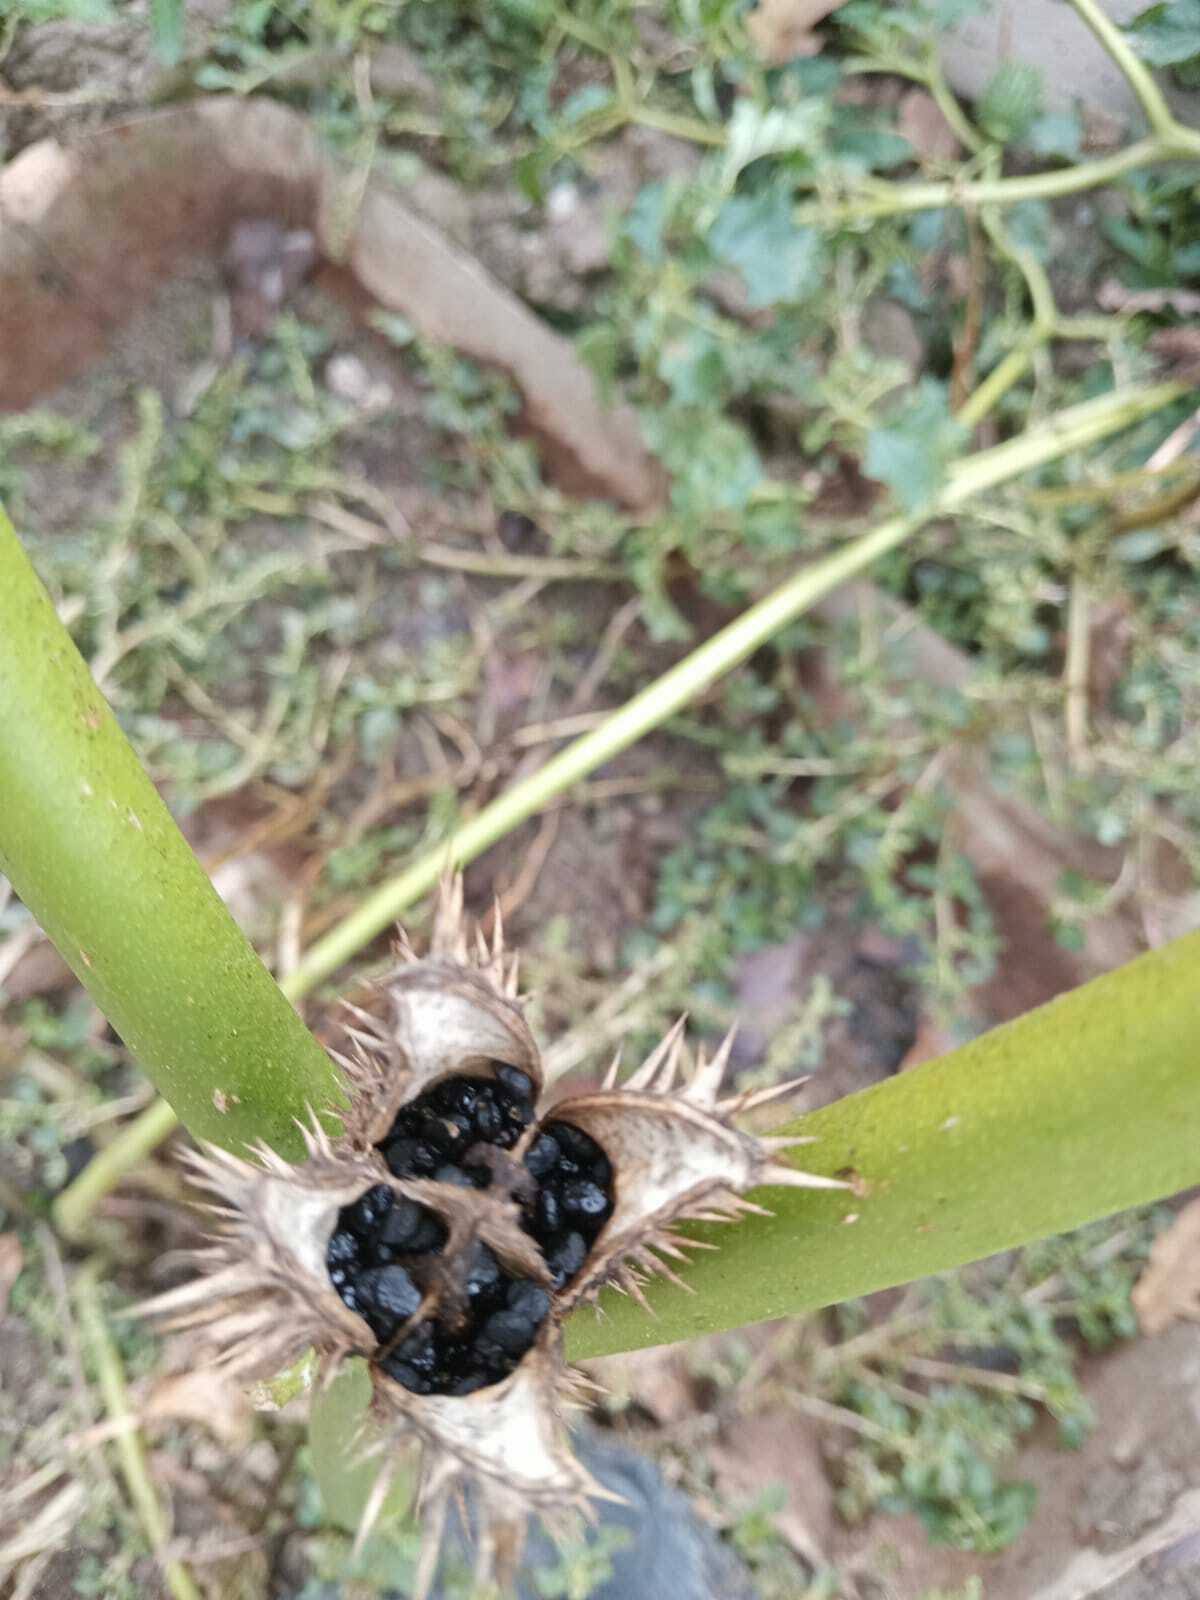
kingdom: Plantae
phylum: Tracheophyta
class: Magnoliopsida
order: Solanales
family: Solanaceae
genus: Datura
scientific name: Datura stramonium
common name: Thorn-apple
